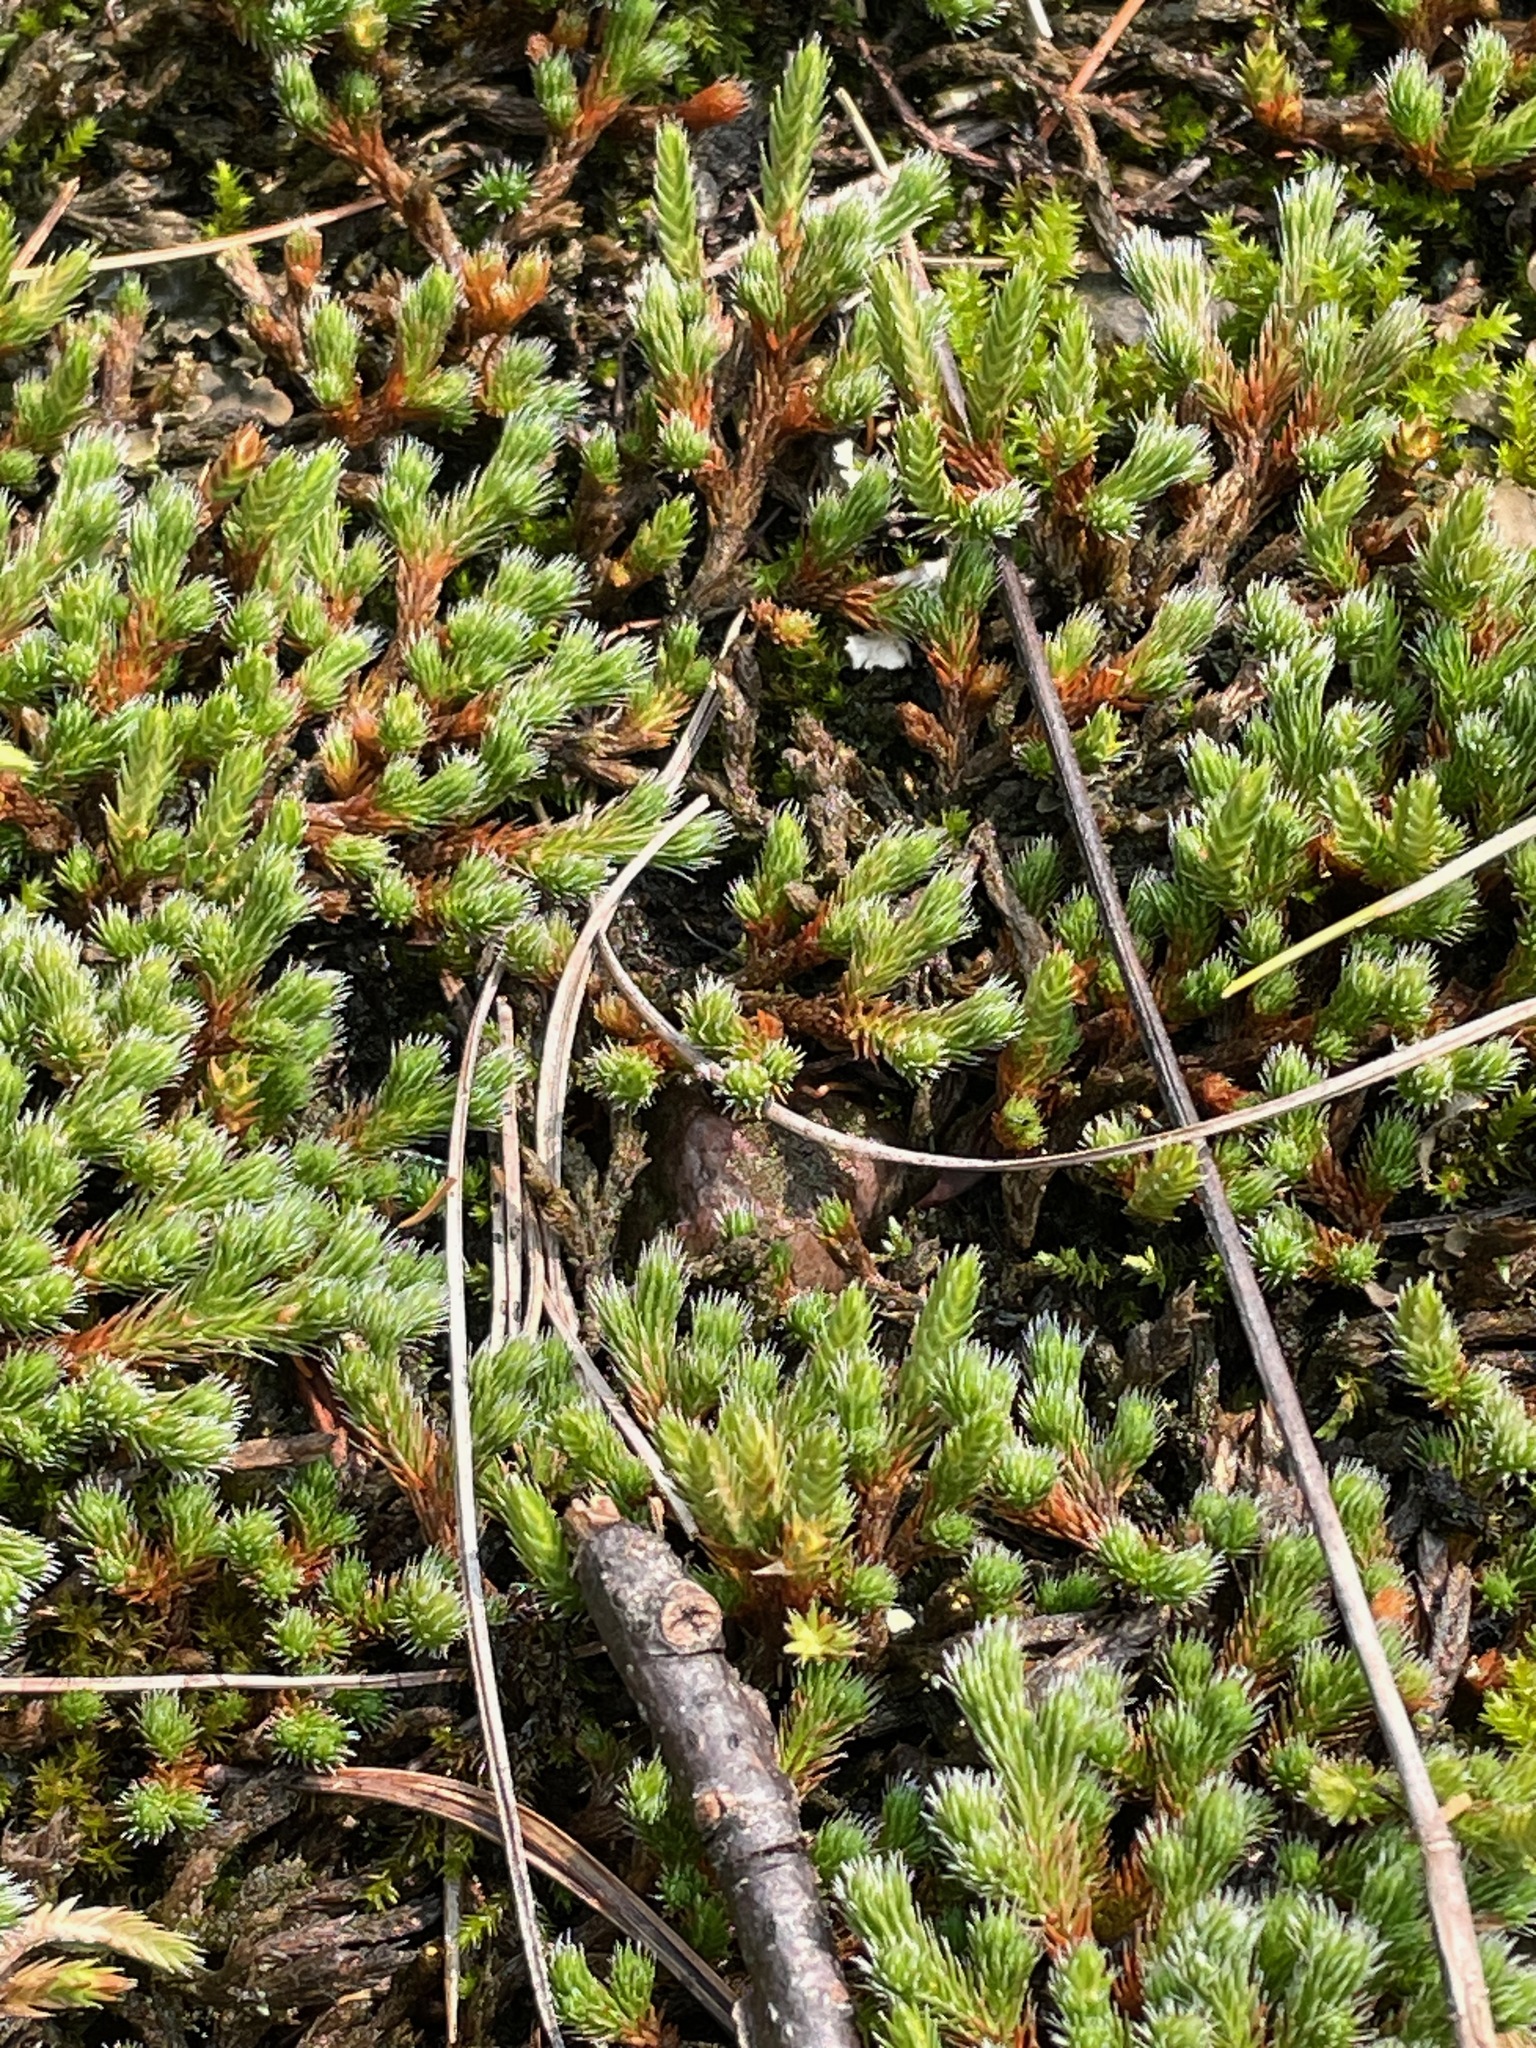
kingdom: Plantae
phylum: Tracheophyta
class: Lycopodiopsida
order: Selaginellales
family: Selaginellaceae
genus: Selaginella
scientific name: Selaginella rupestris
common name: Dwarf spikemoss
